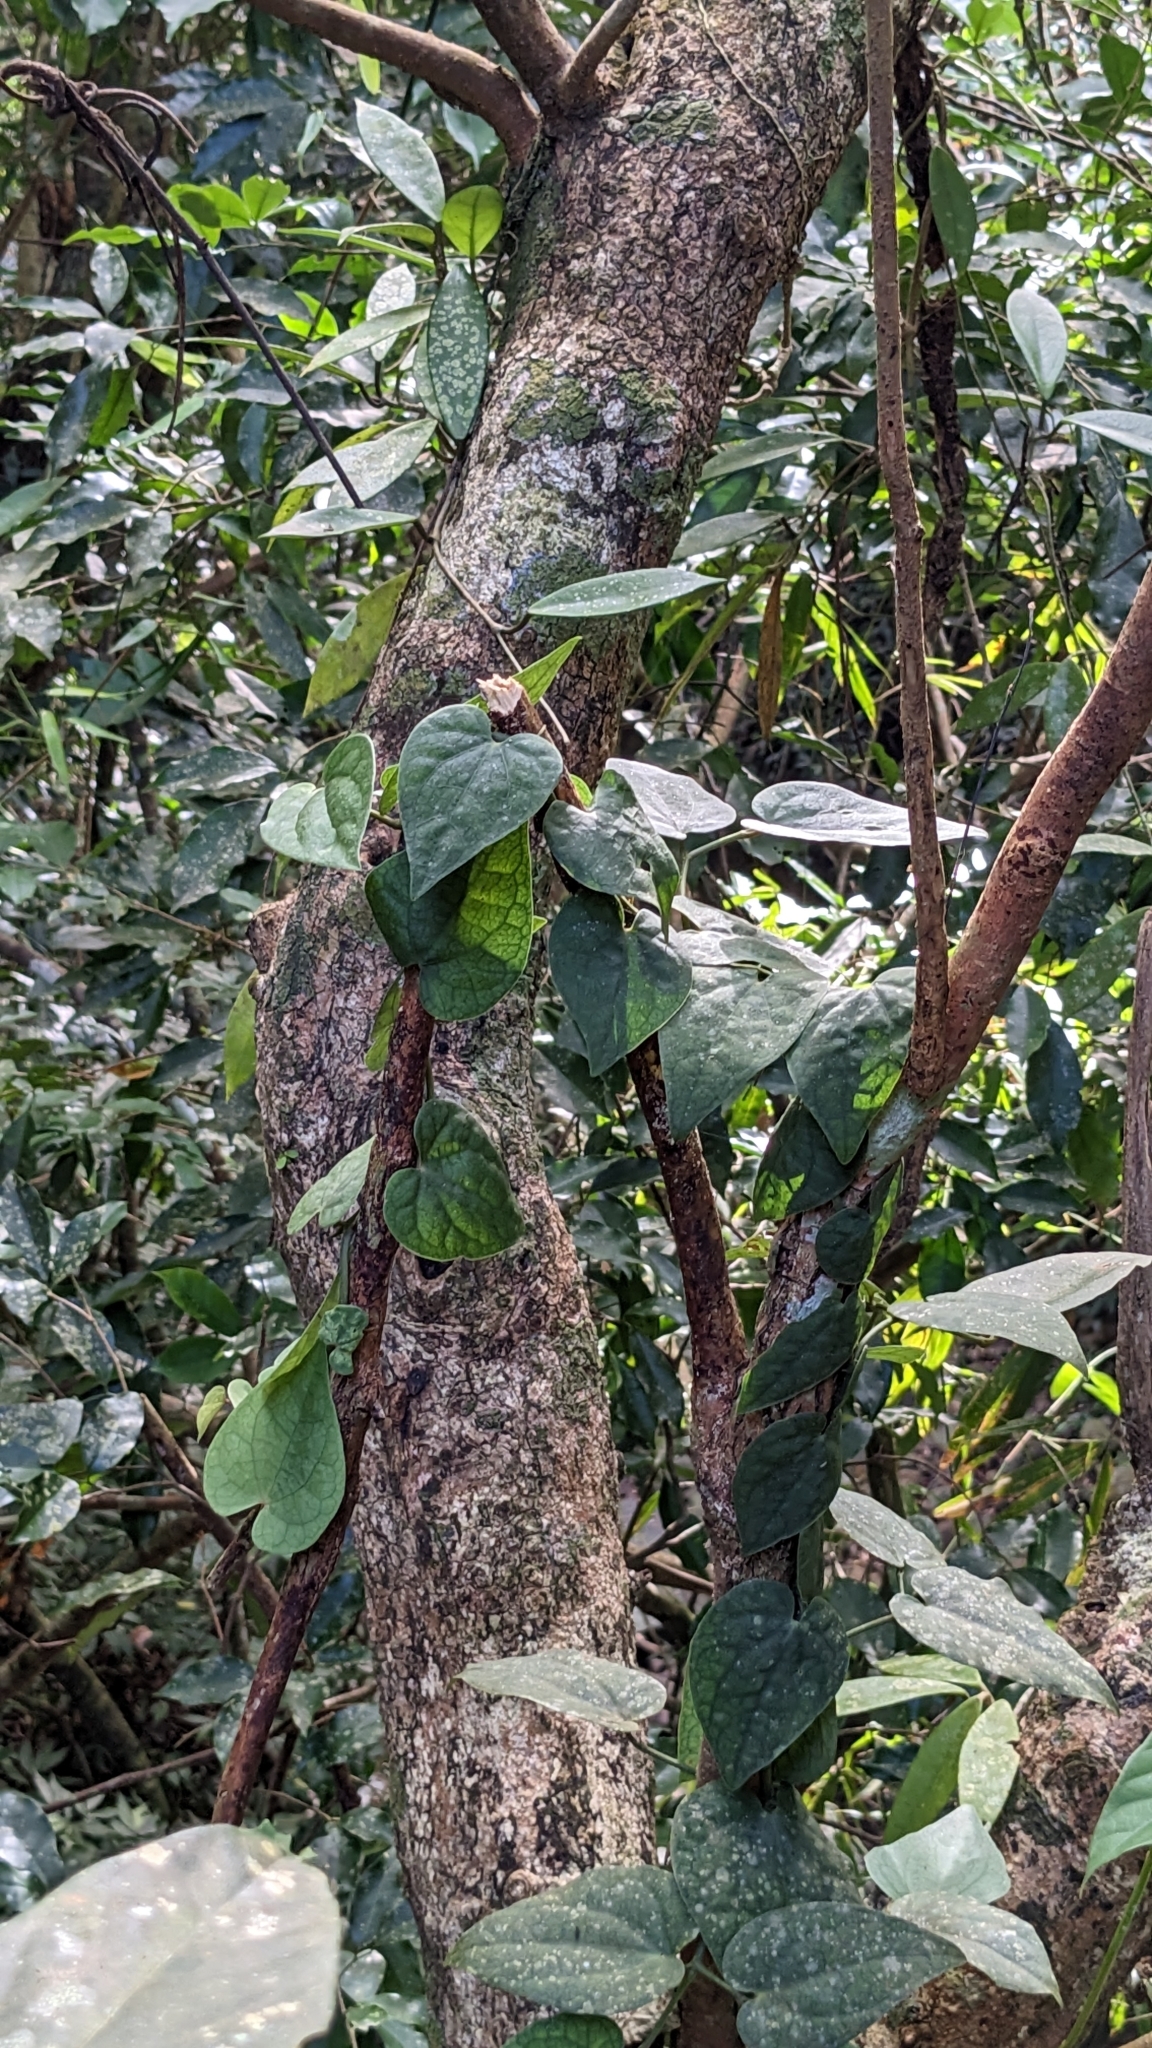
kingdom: Plantae
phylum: Tracheophyta
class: Magnoliopsida
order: Piperales
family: Piperaceae
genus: Piper
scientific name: Piper taiwanense
